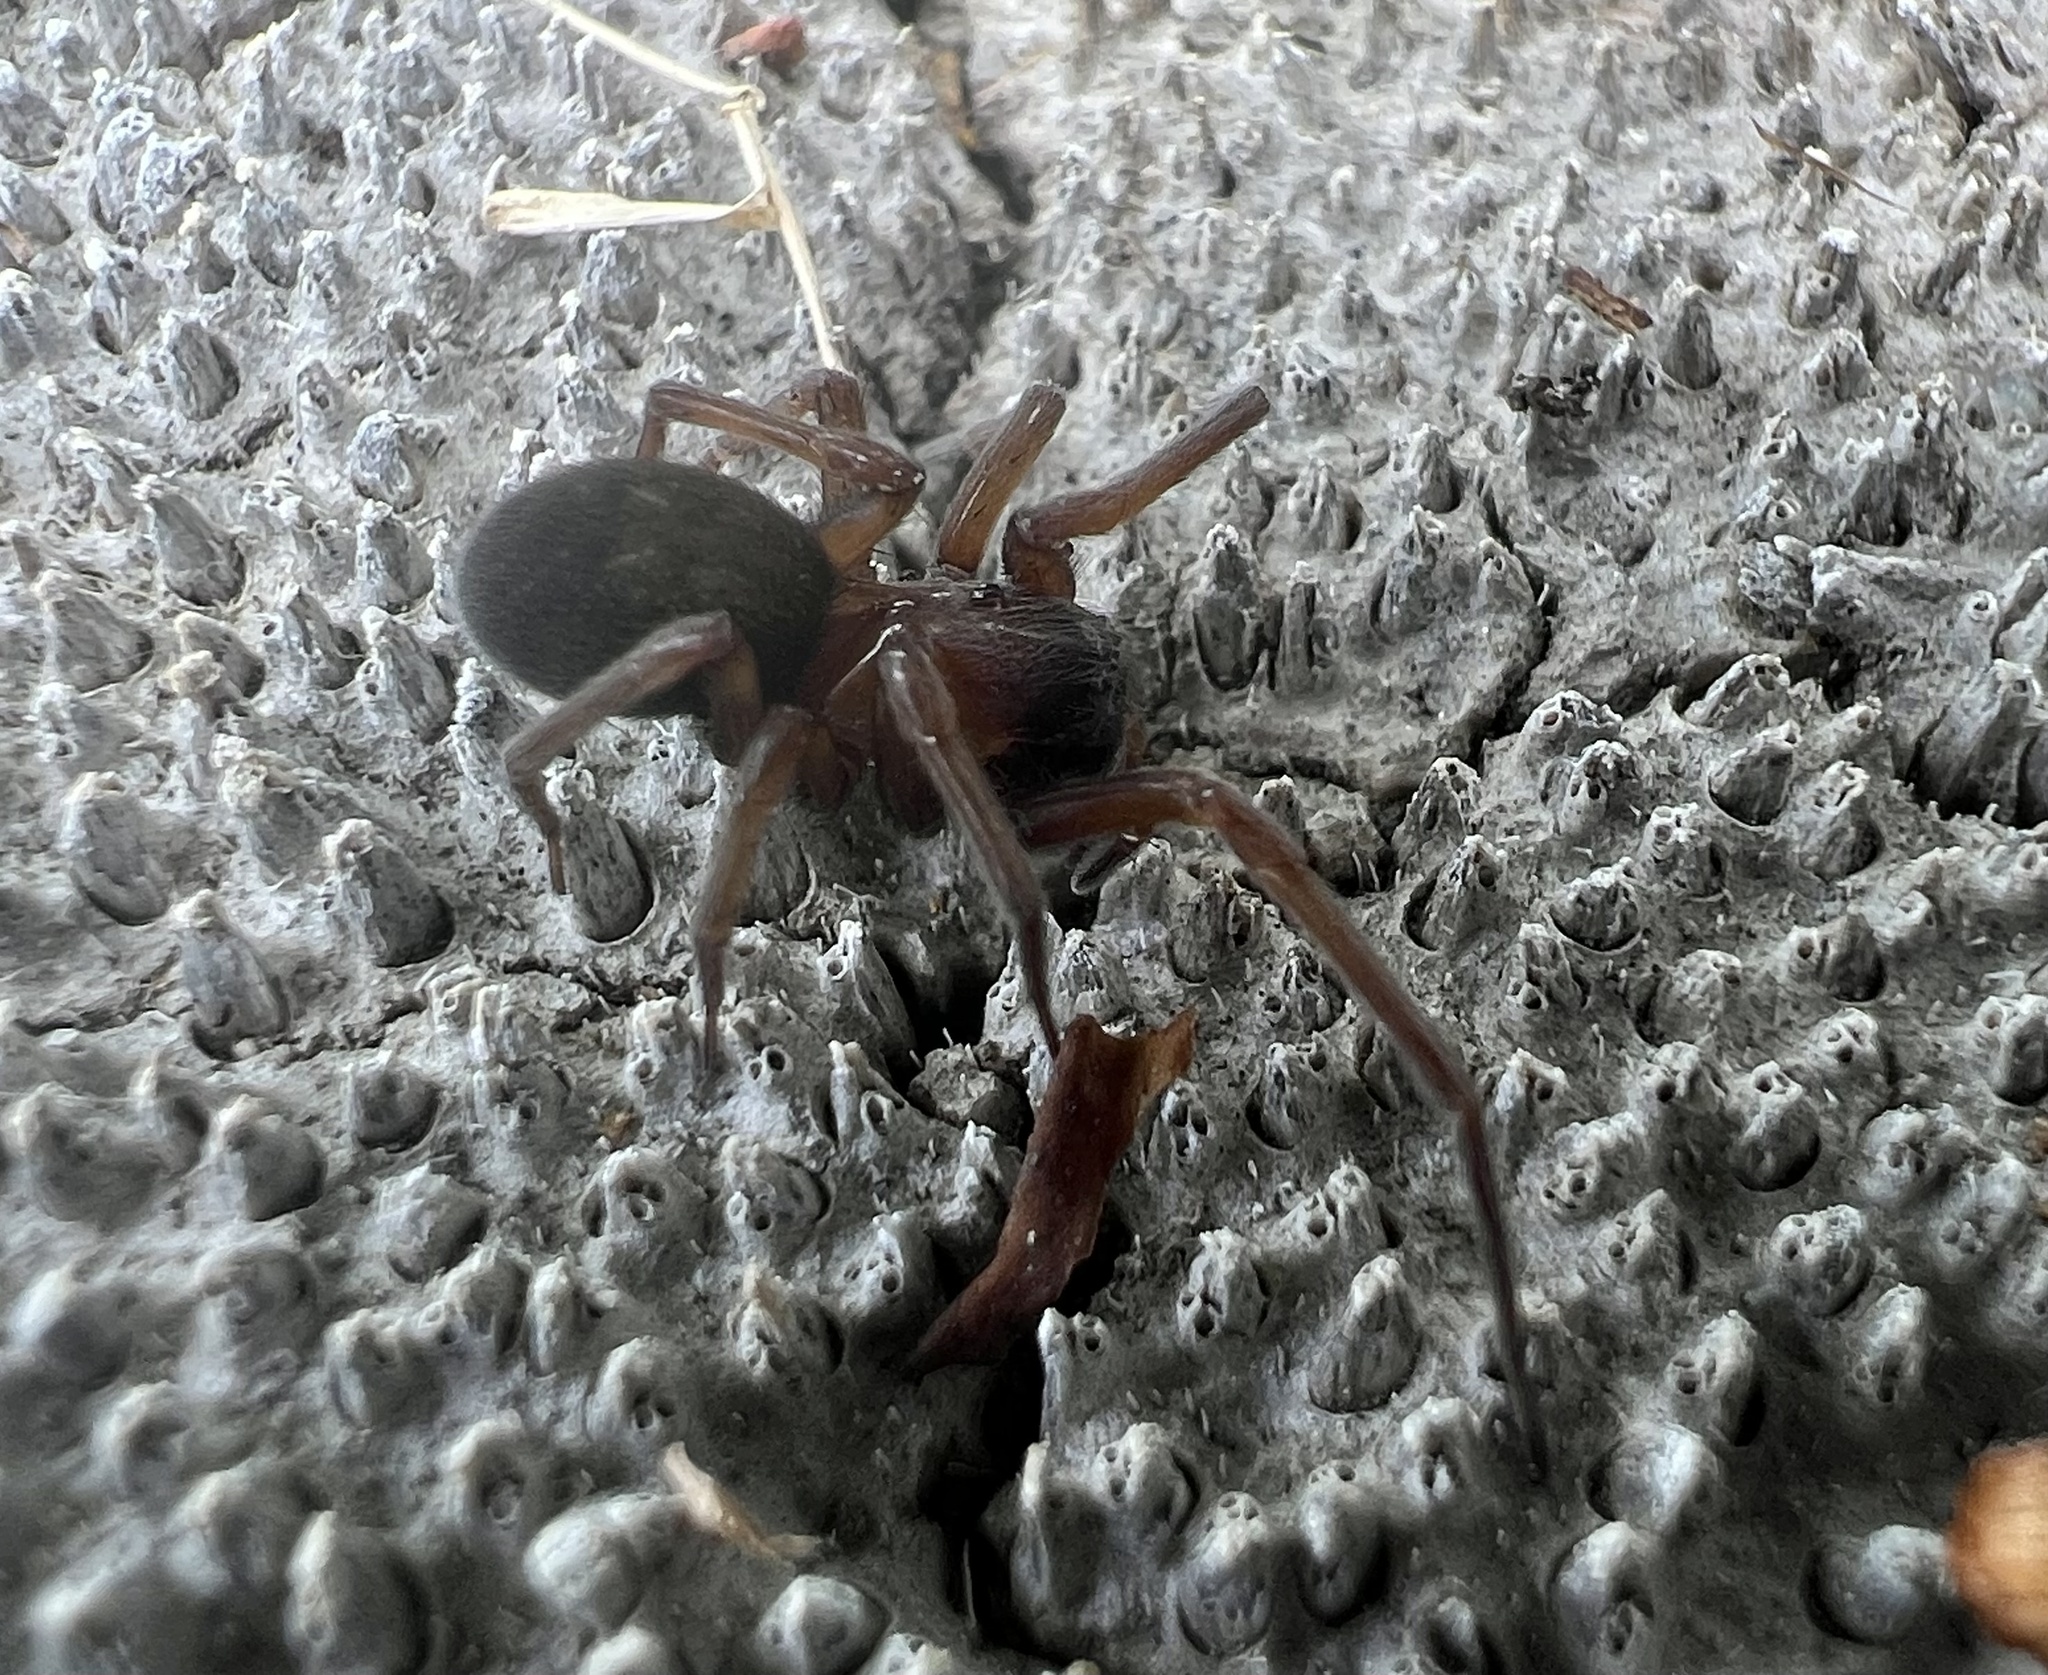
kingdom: Animalia
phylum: Arthropoda
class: Arachnida
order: Araneae
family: Desidae
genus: Metaltella
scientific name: Metaltella simoni
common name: Cribellate spider
